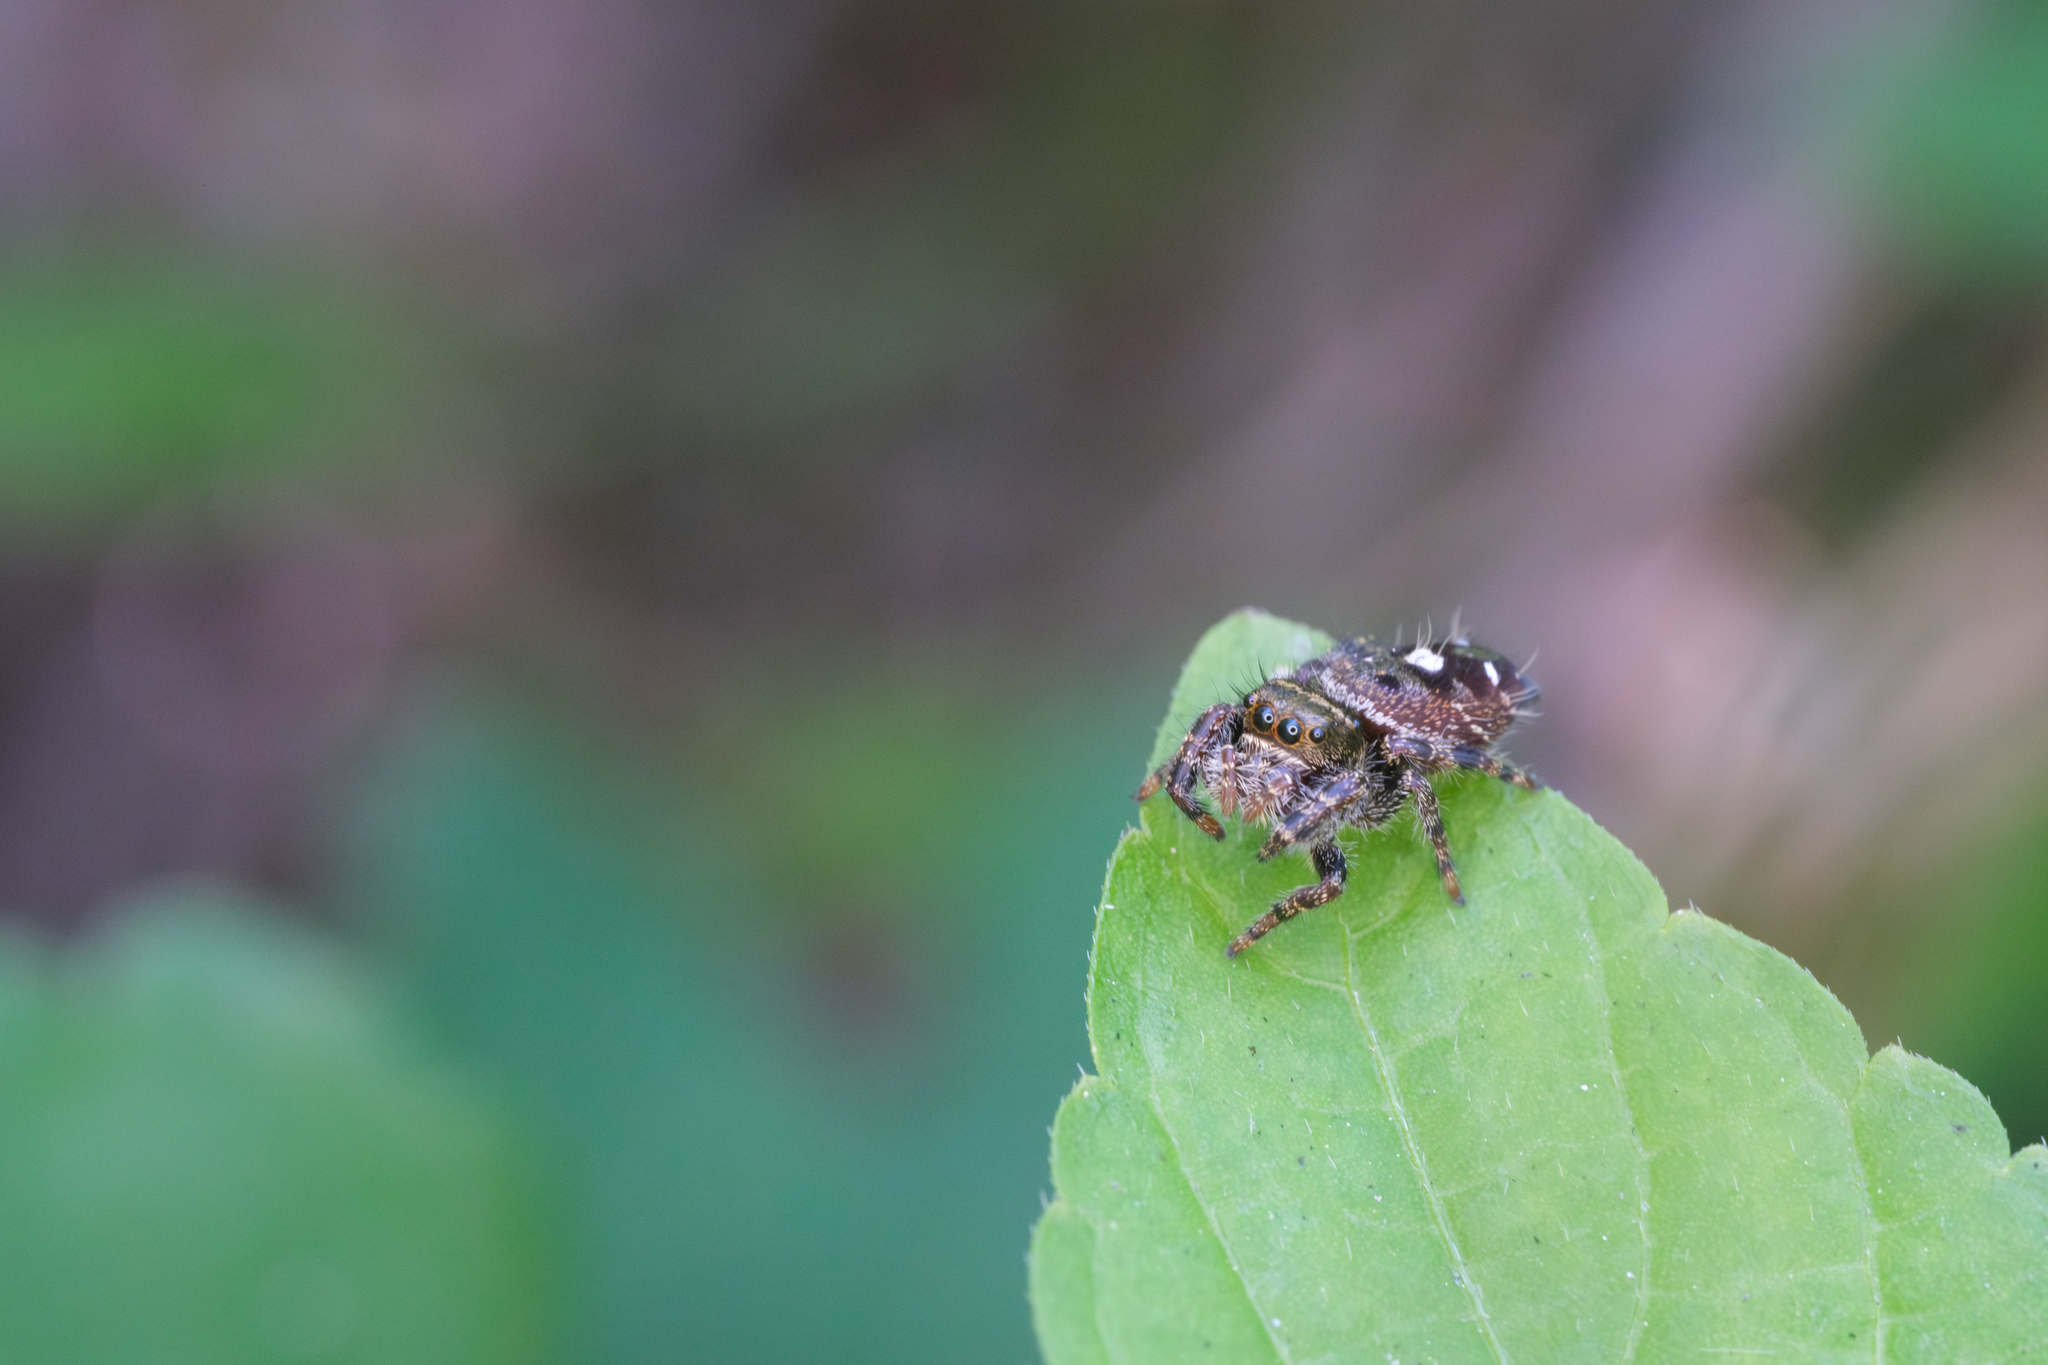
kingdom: Animalia
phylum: Arthropoda
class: Arachnida
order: Araneae
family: Salticidae
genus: Phidippus
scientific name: Phidippus audax
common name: Bold jumper
